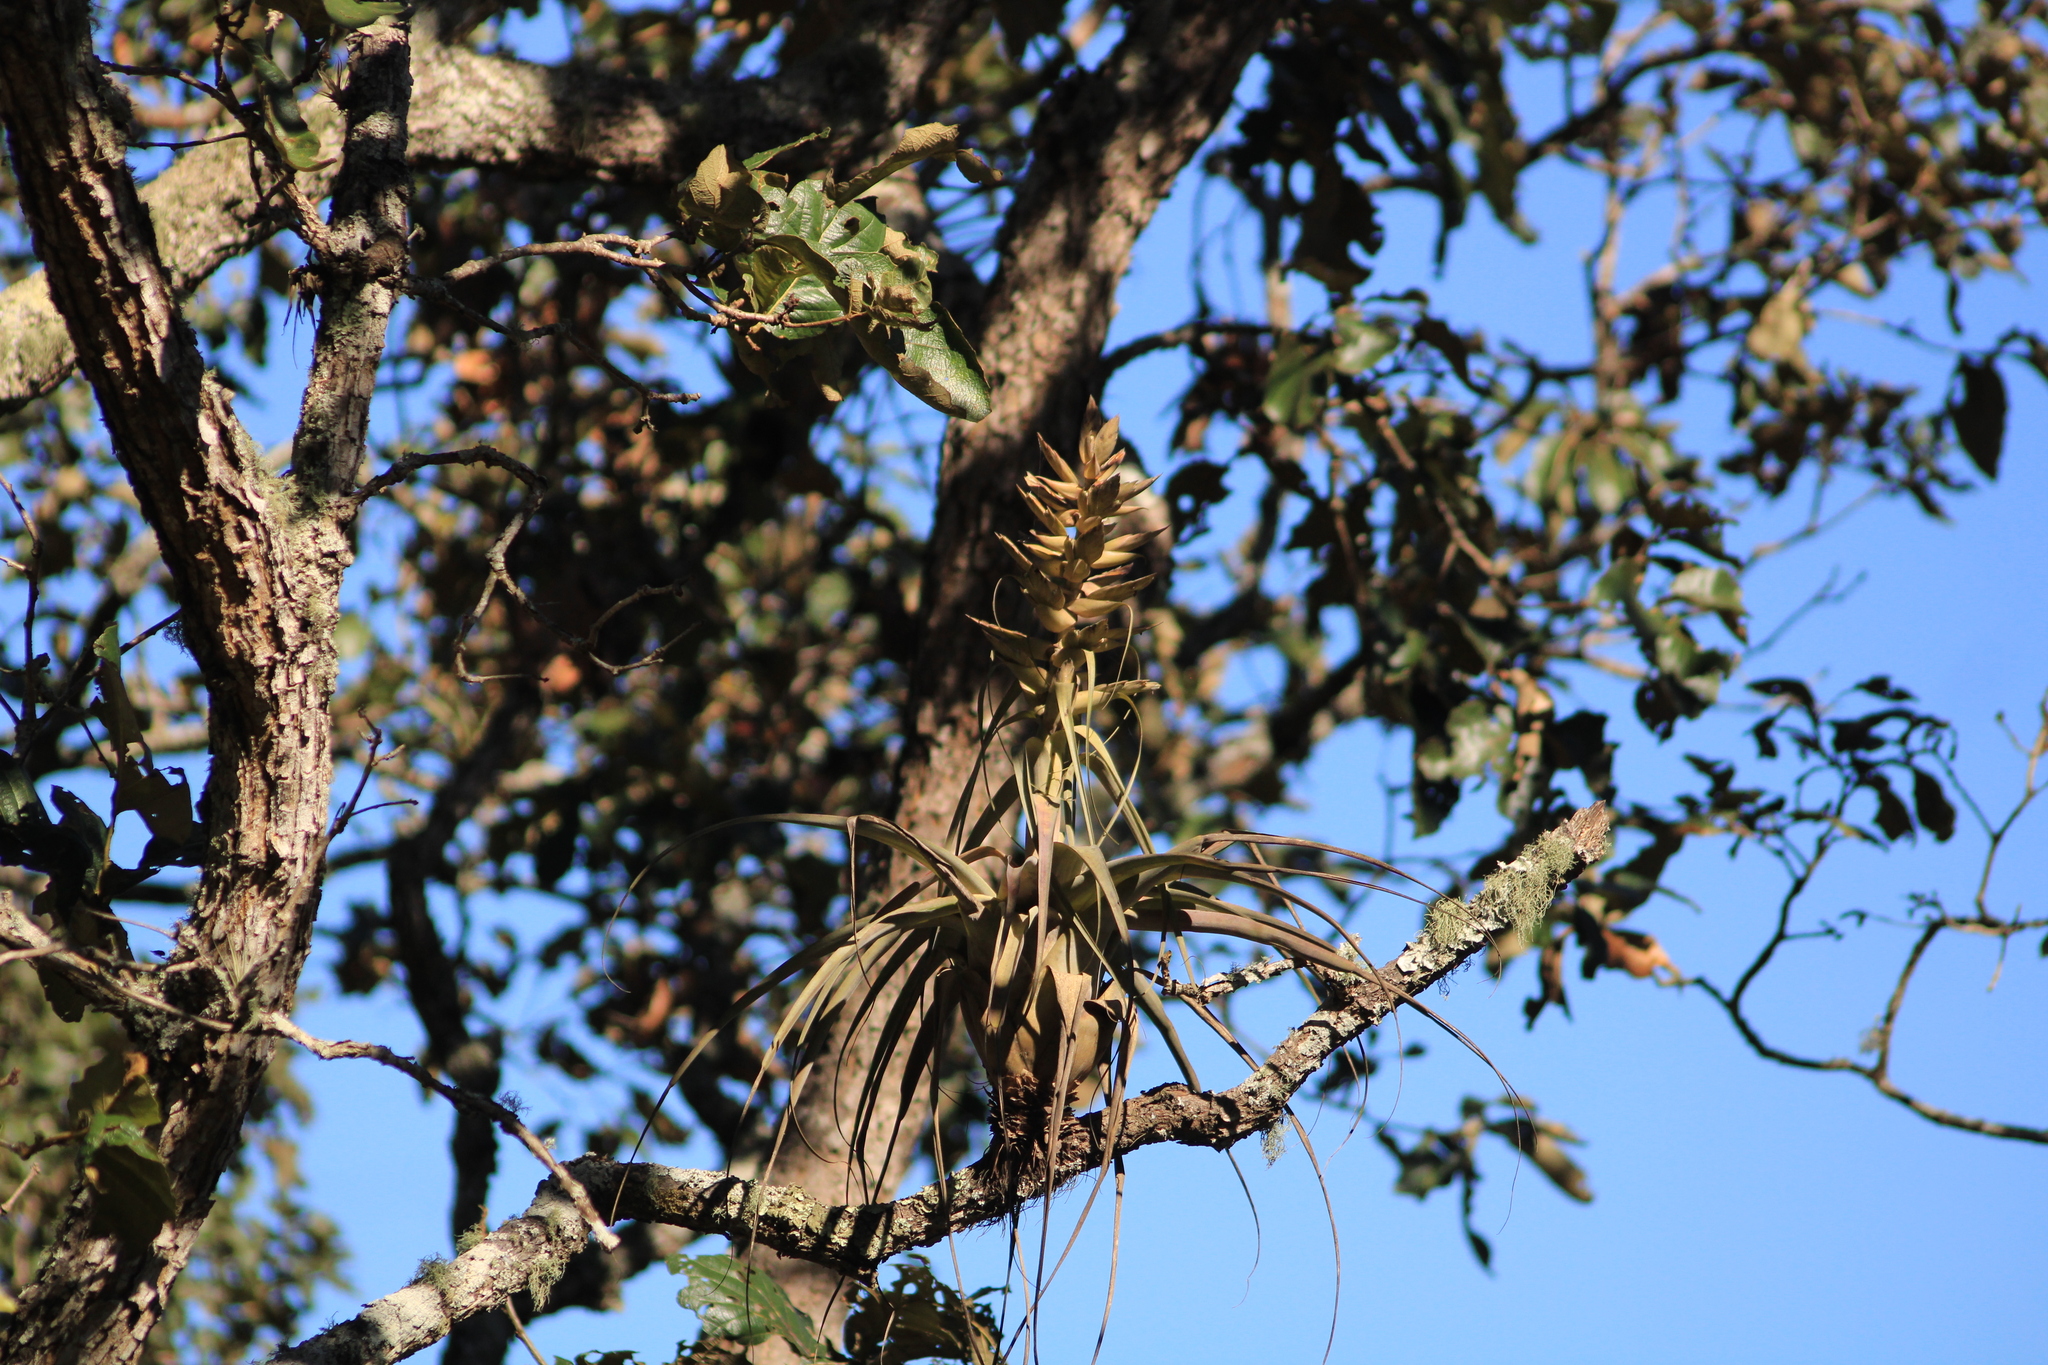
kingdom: Plantae
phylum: Tracheophyta
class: Liliopsida
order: Poales
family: Bromeliaceae
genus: Tillandsia
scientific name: Tillandsia bourgaei
